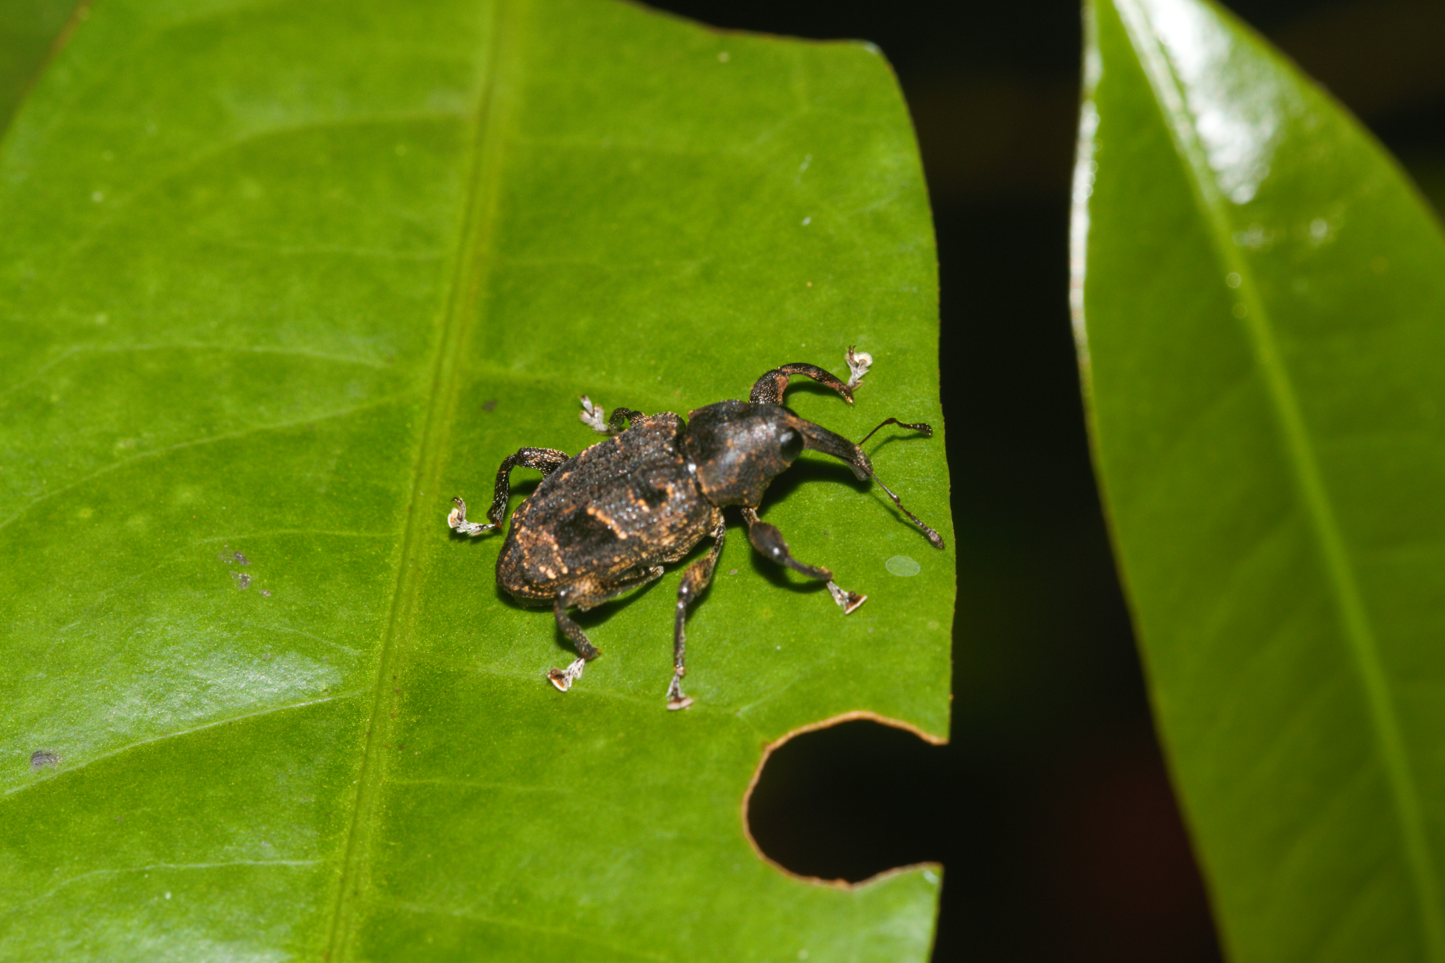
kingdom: Animalia
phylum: Arthropoda
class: Insecta
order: Coleoptera
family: Curculionidae
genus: Heilipodus
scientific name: Heilipodus desjardinsi
